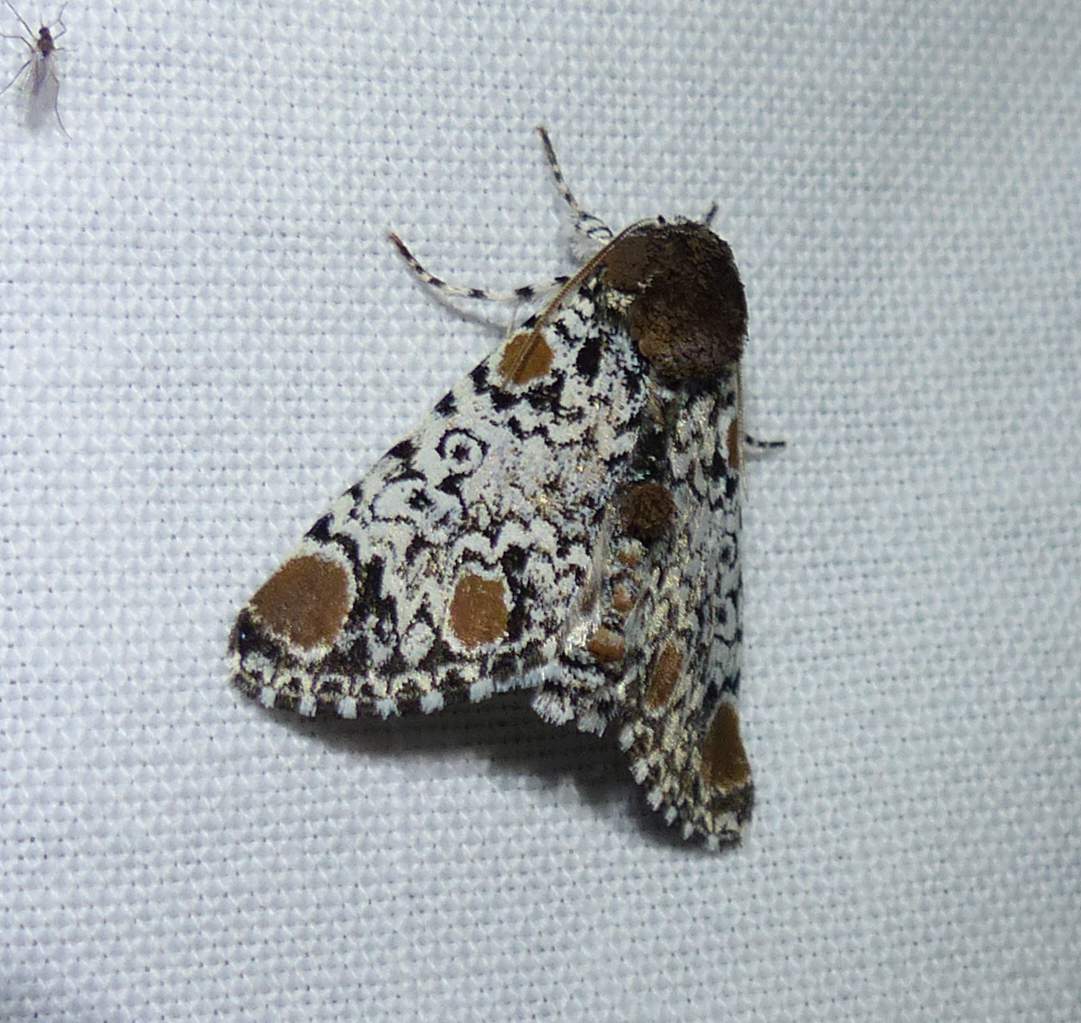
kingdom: Animalia
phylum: Arthropoda
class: Insecta
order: Lepidoptera
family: Noctuidae
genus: Harrisimemna
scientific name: Harrisimemna trisignata
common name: Harris threespot
